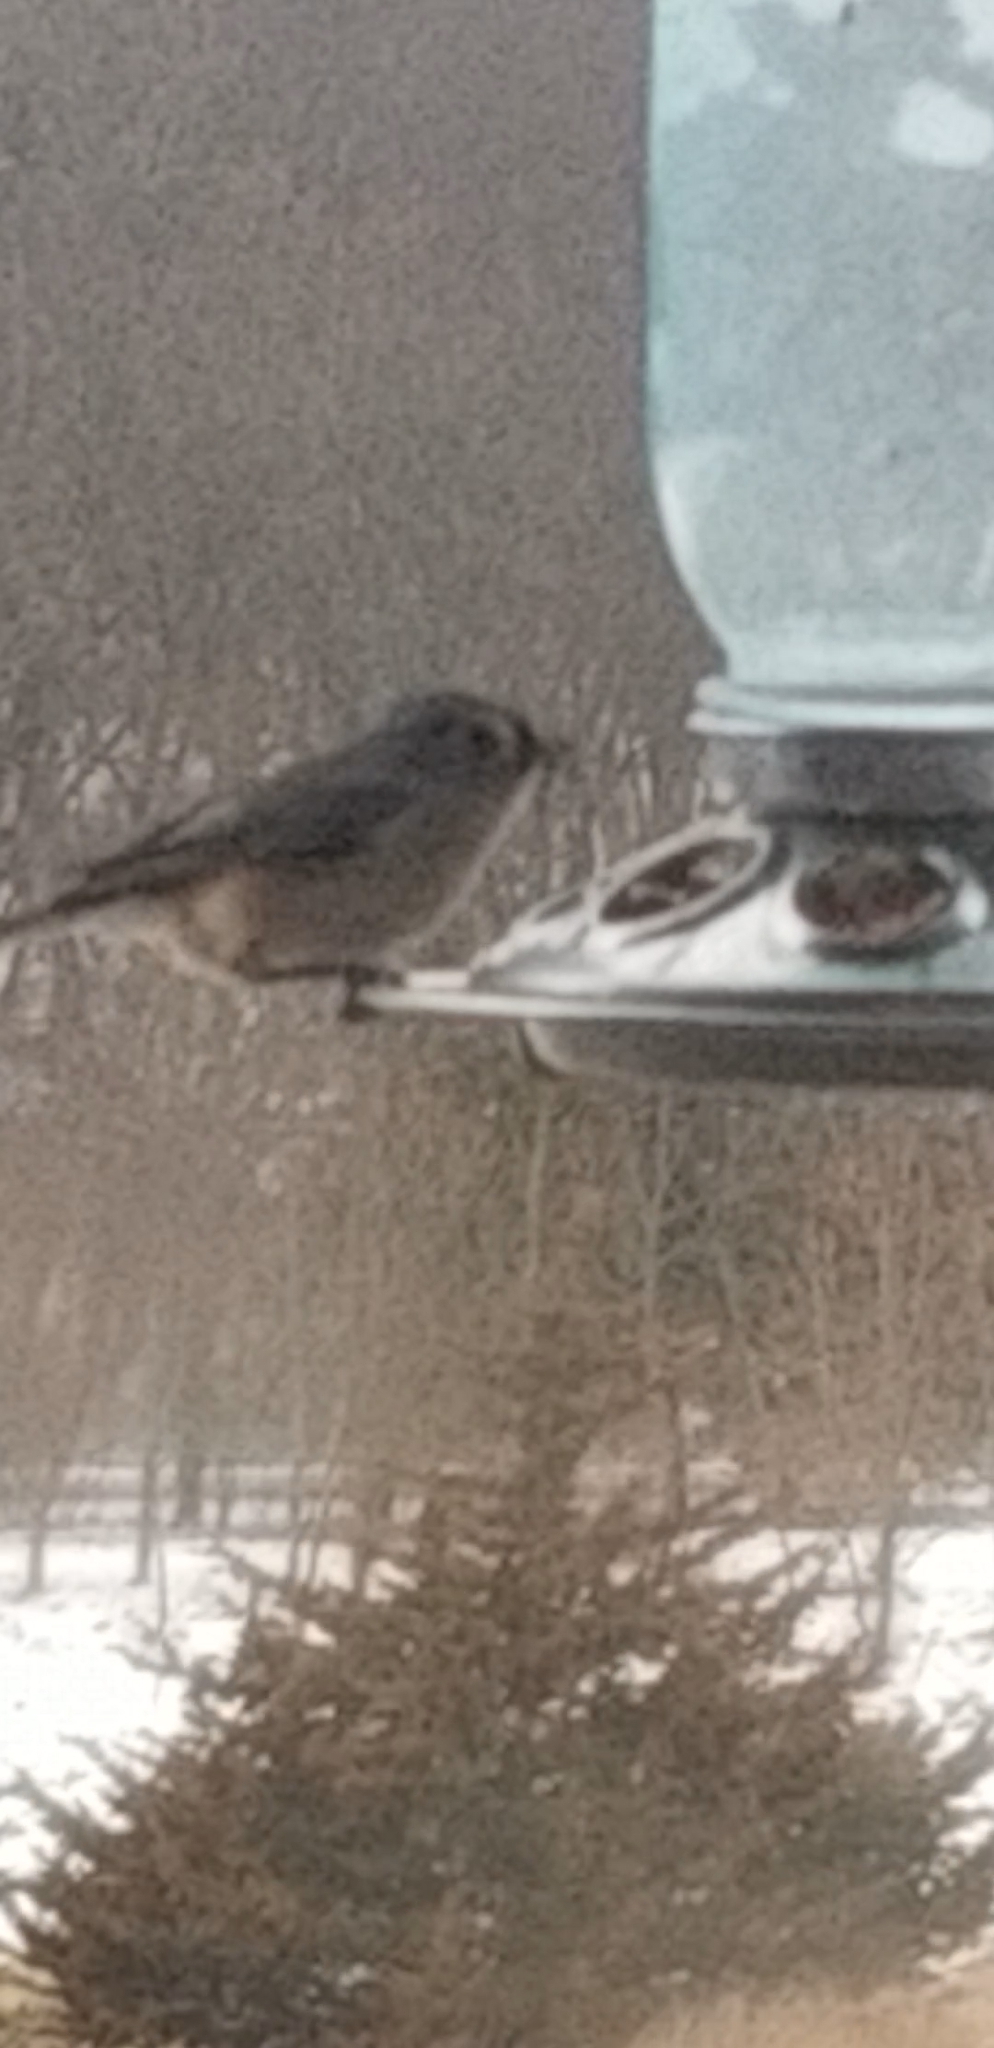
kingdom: Animalia
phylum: Chordata
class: Aves
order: Passeriformes
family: Paridae
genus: Baeolophus
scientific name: Baeolophus bicolor
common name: Tufted titmouse
